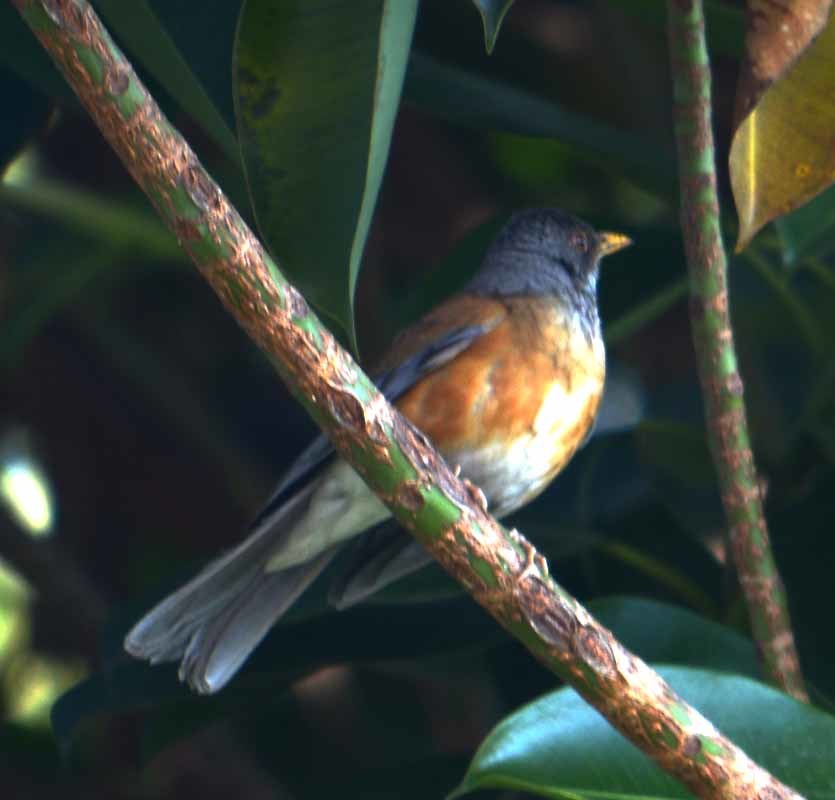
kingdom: Animalia
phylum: Chordata
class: Aves
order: Passeriformes
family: Turdidae
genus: Turdus
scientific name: Turdus rufopalliatus
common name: Rufous-backed robin
